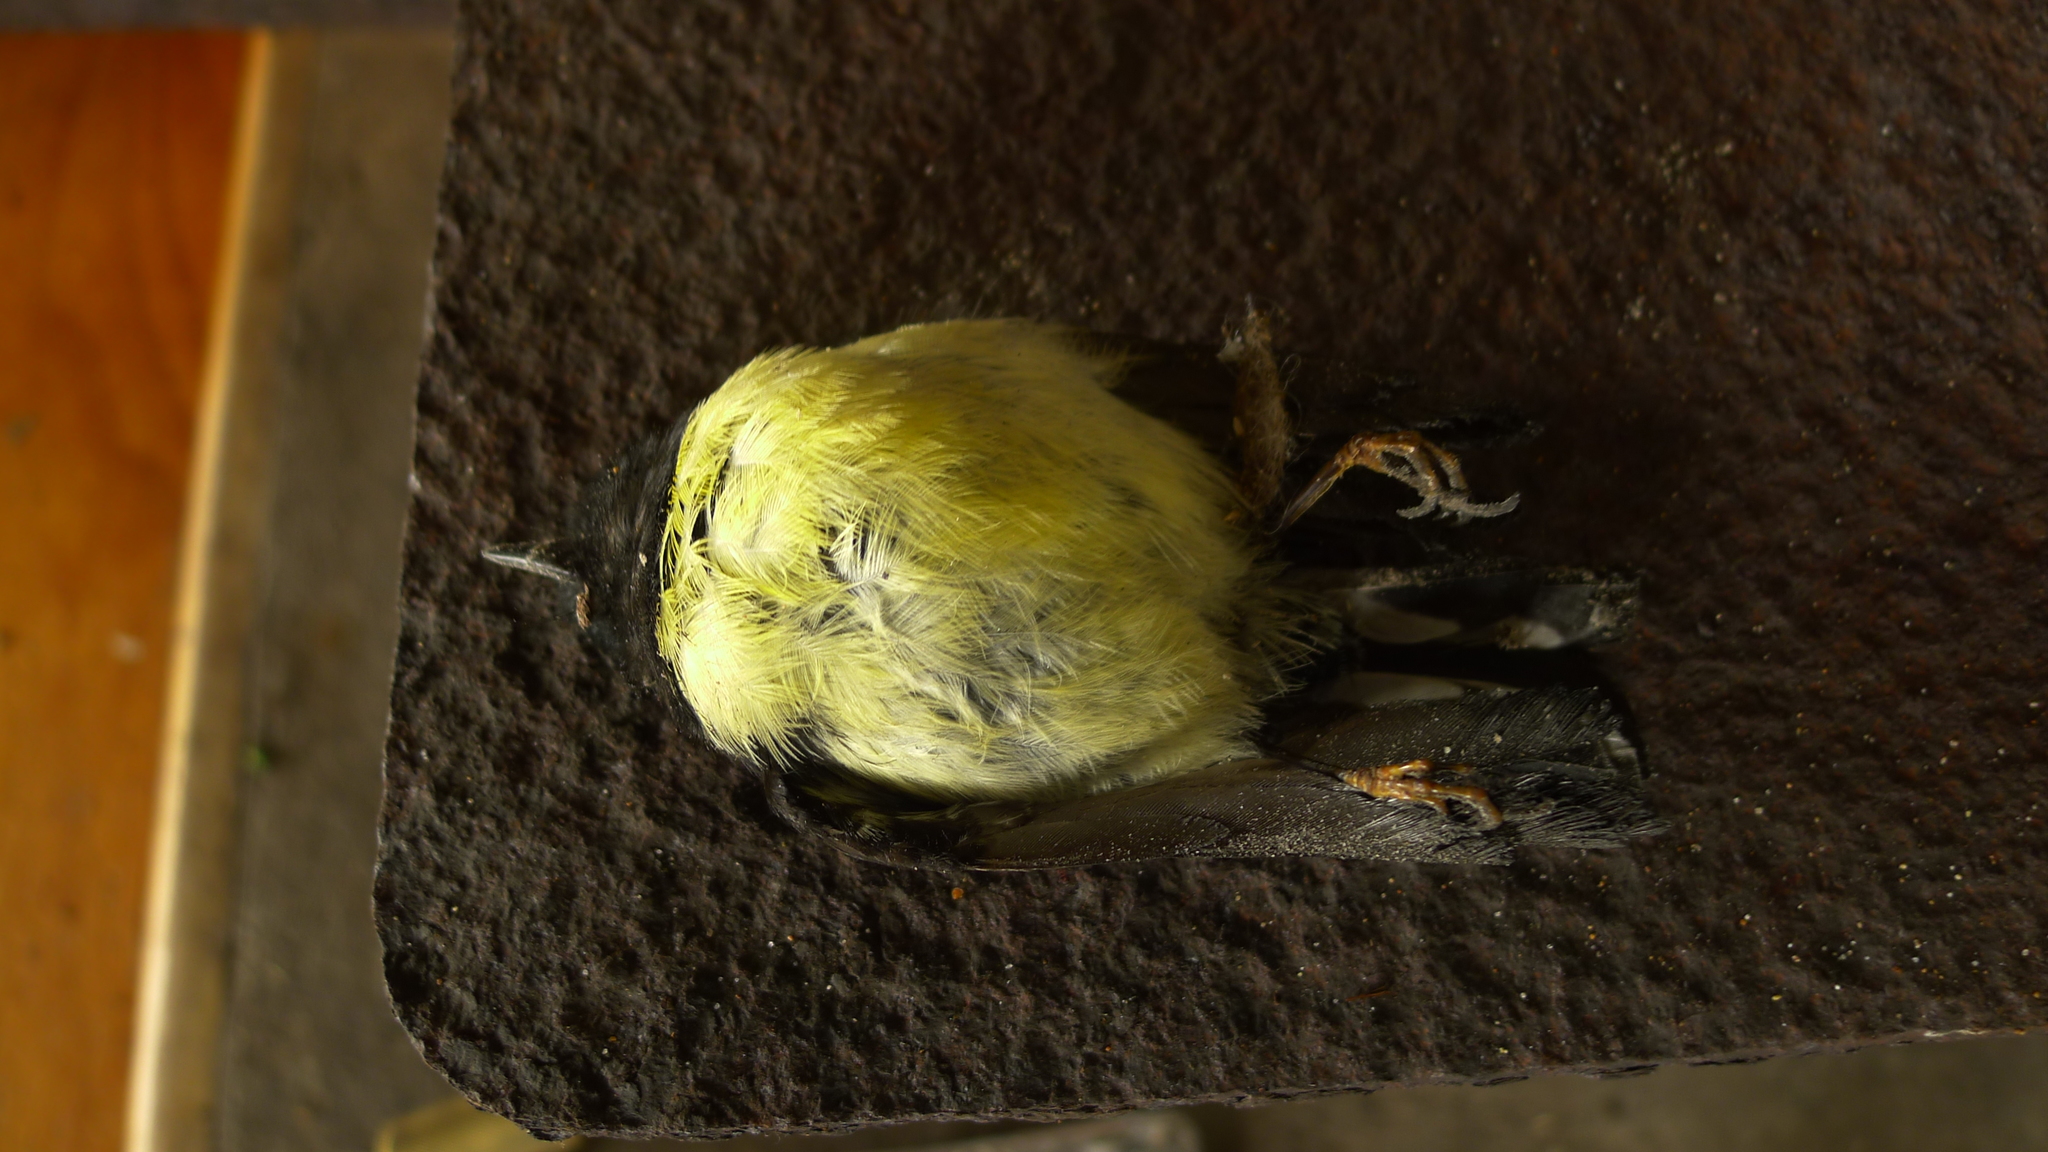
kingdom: Animalia
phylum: Chordata
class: Aves
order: Passeriformes
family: Petroicidae
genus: Petroica
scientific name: Petroica macrocephala
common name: Tomtit
